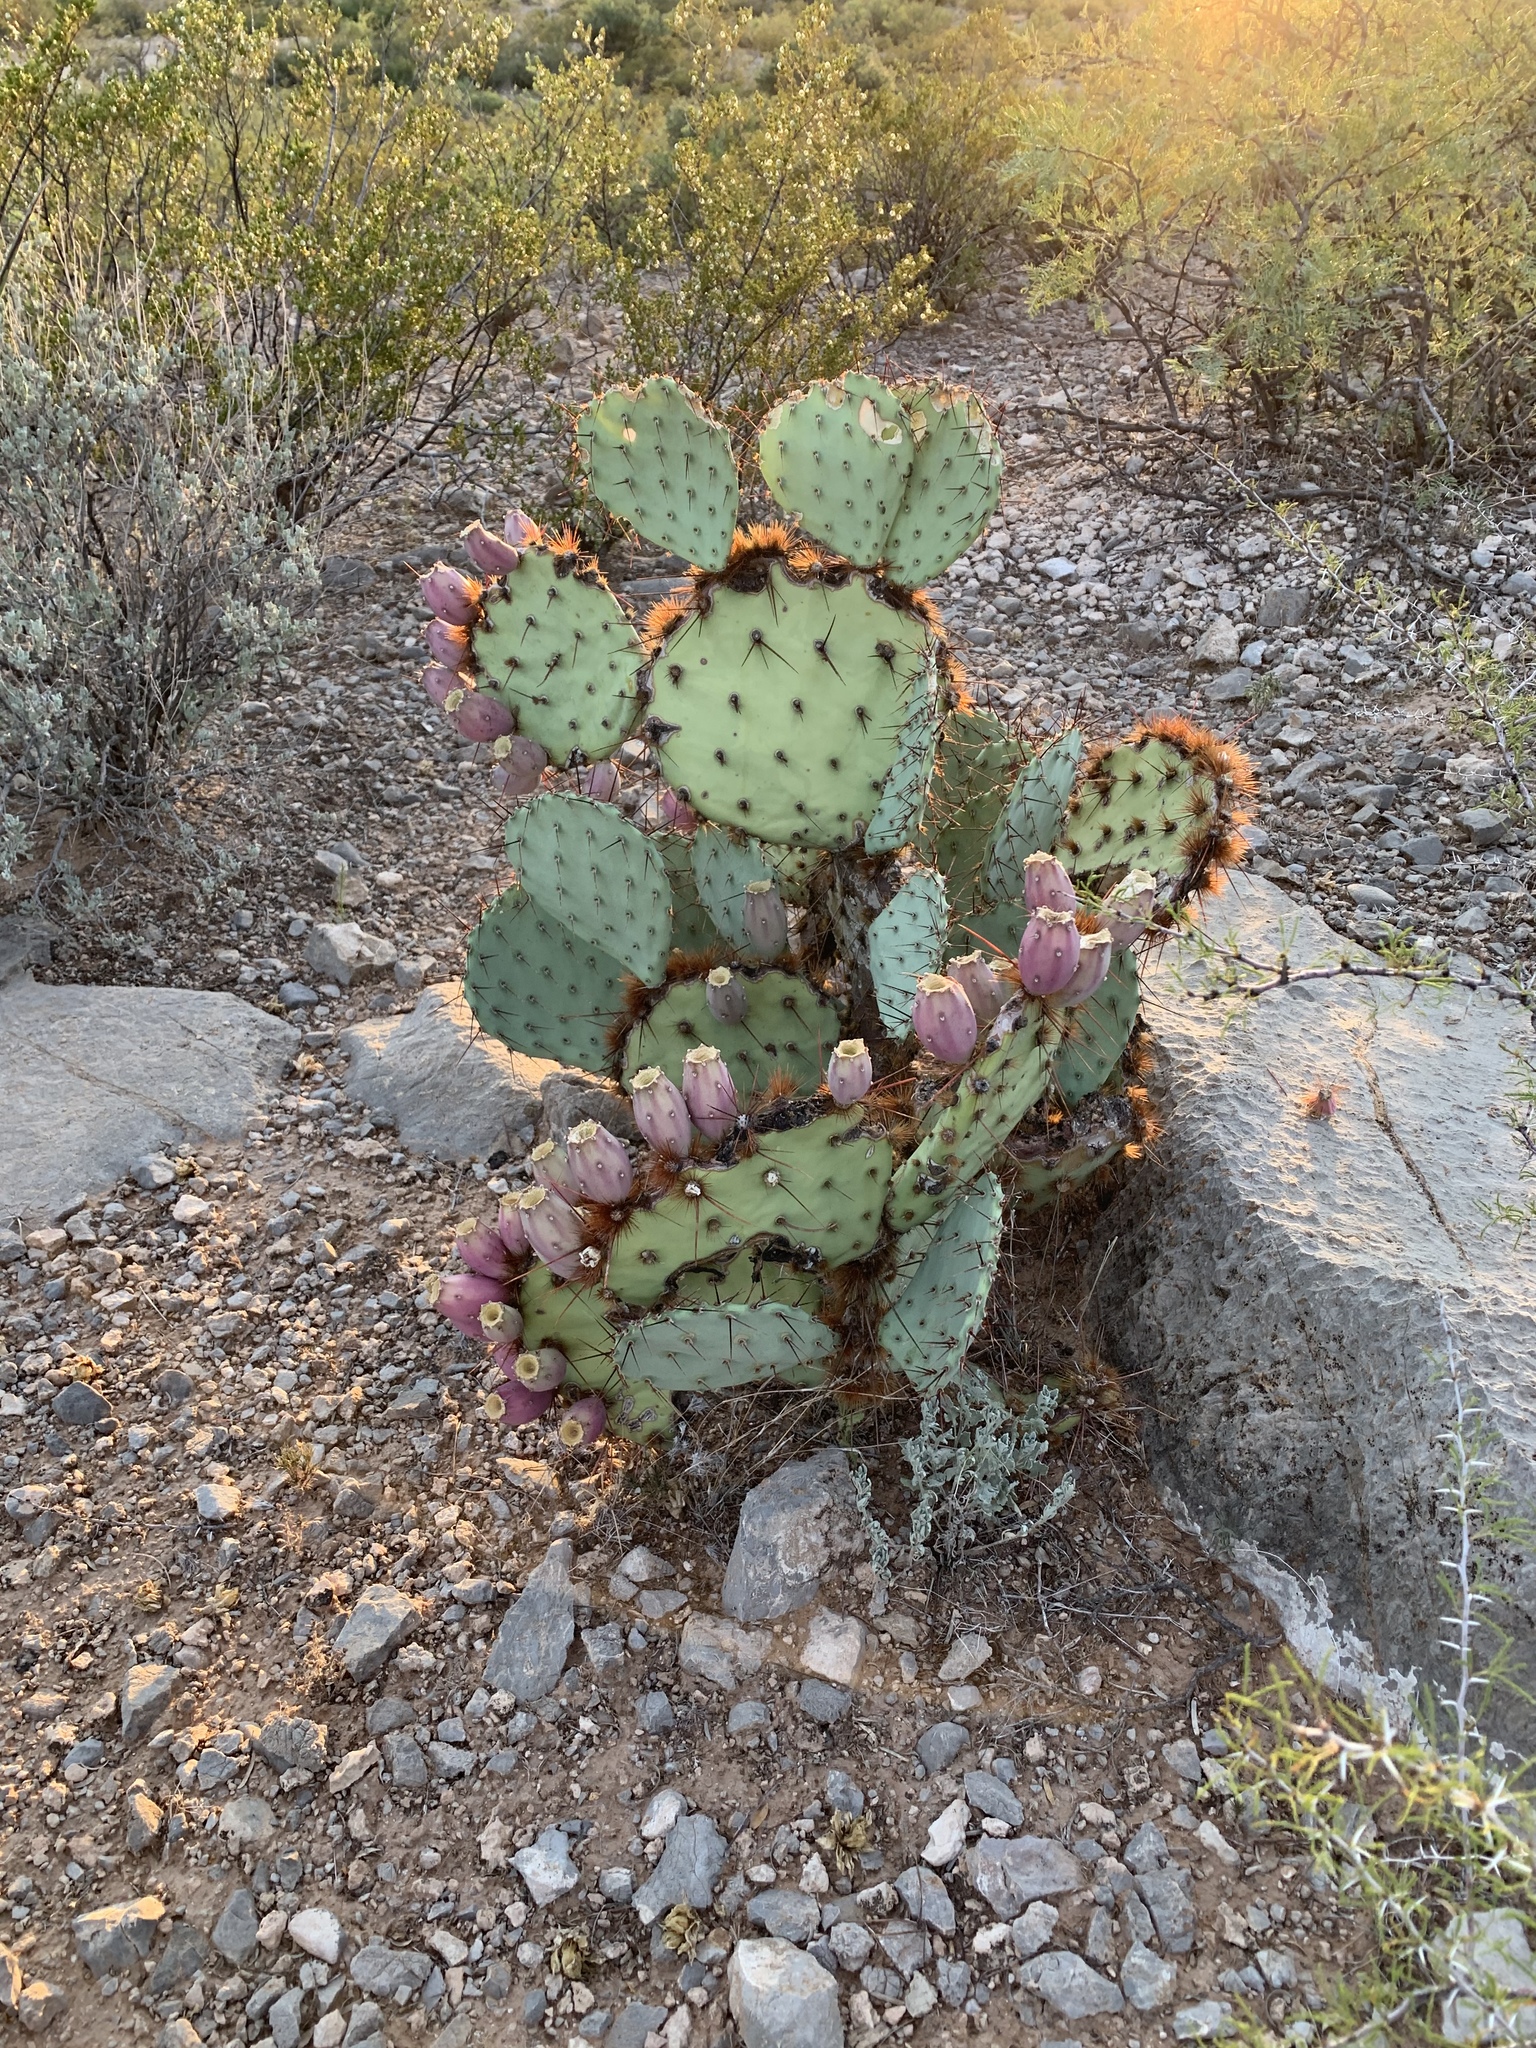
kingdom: Plantae
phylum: Tracheophyta
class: Magnoliopsida
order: Caryophyllales
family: Cactaceae
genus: Opuntia
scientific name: Opuntia macrocentra
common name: Purple prickly-pear
